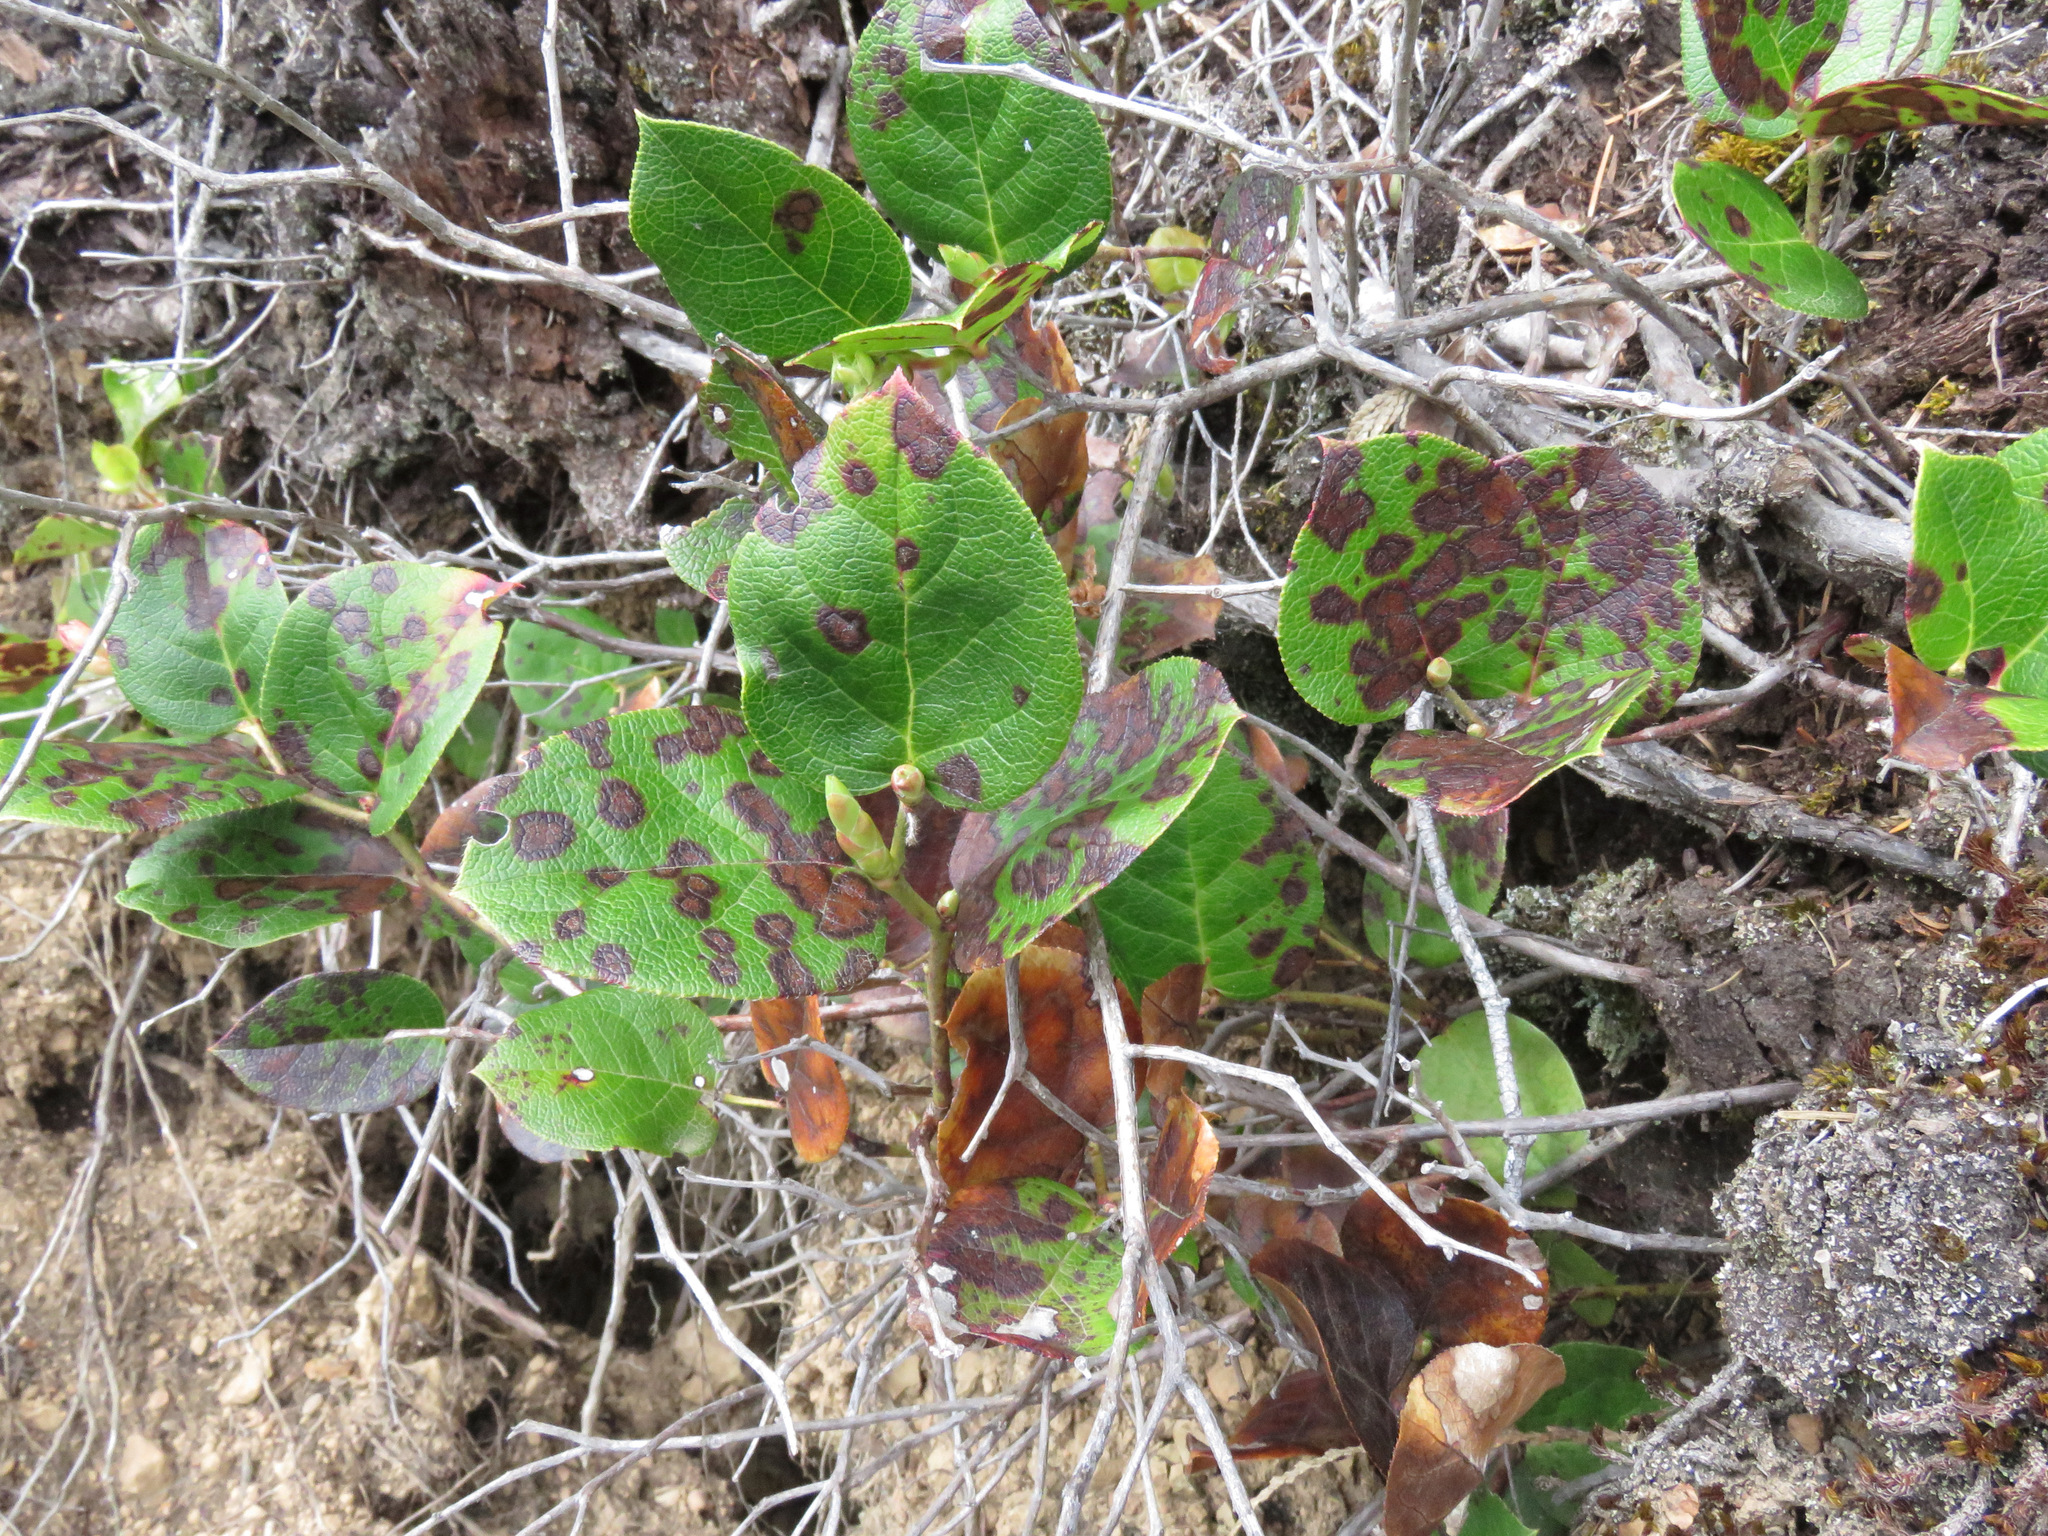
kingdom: Plantae
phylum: Tracheophyta
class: Magnoliopsida
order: Ericales
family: Ericaceae
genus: Gaultheria
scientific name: Gaultheria shallon
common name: Shallon
